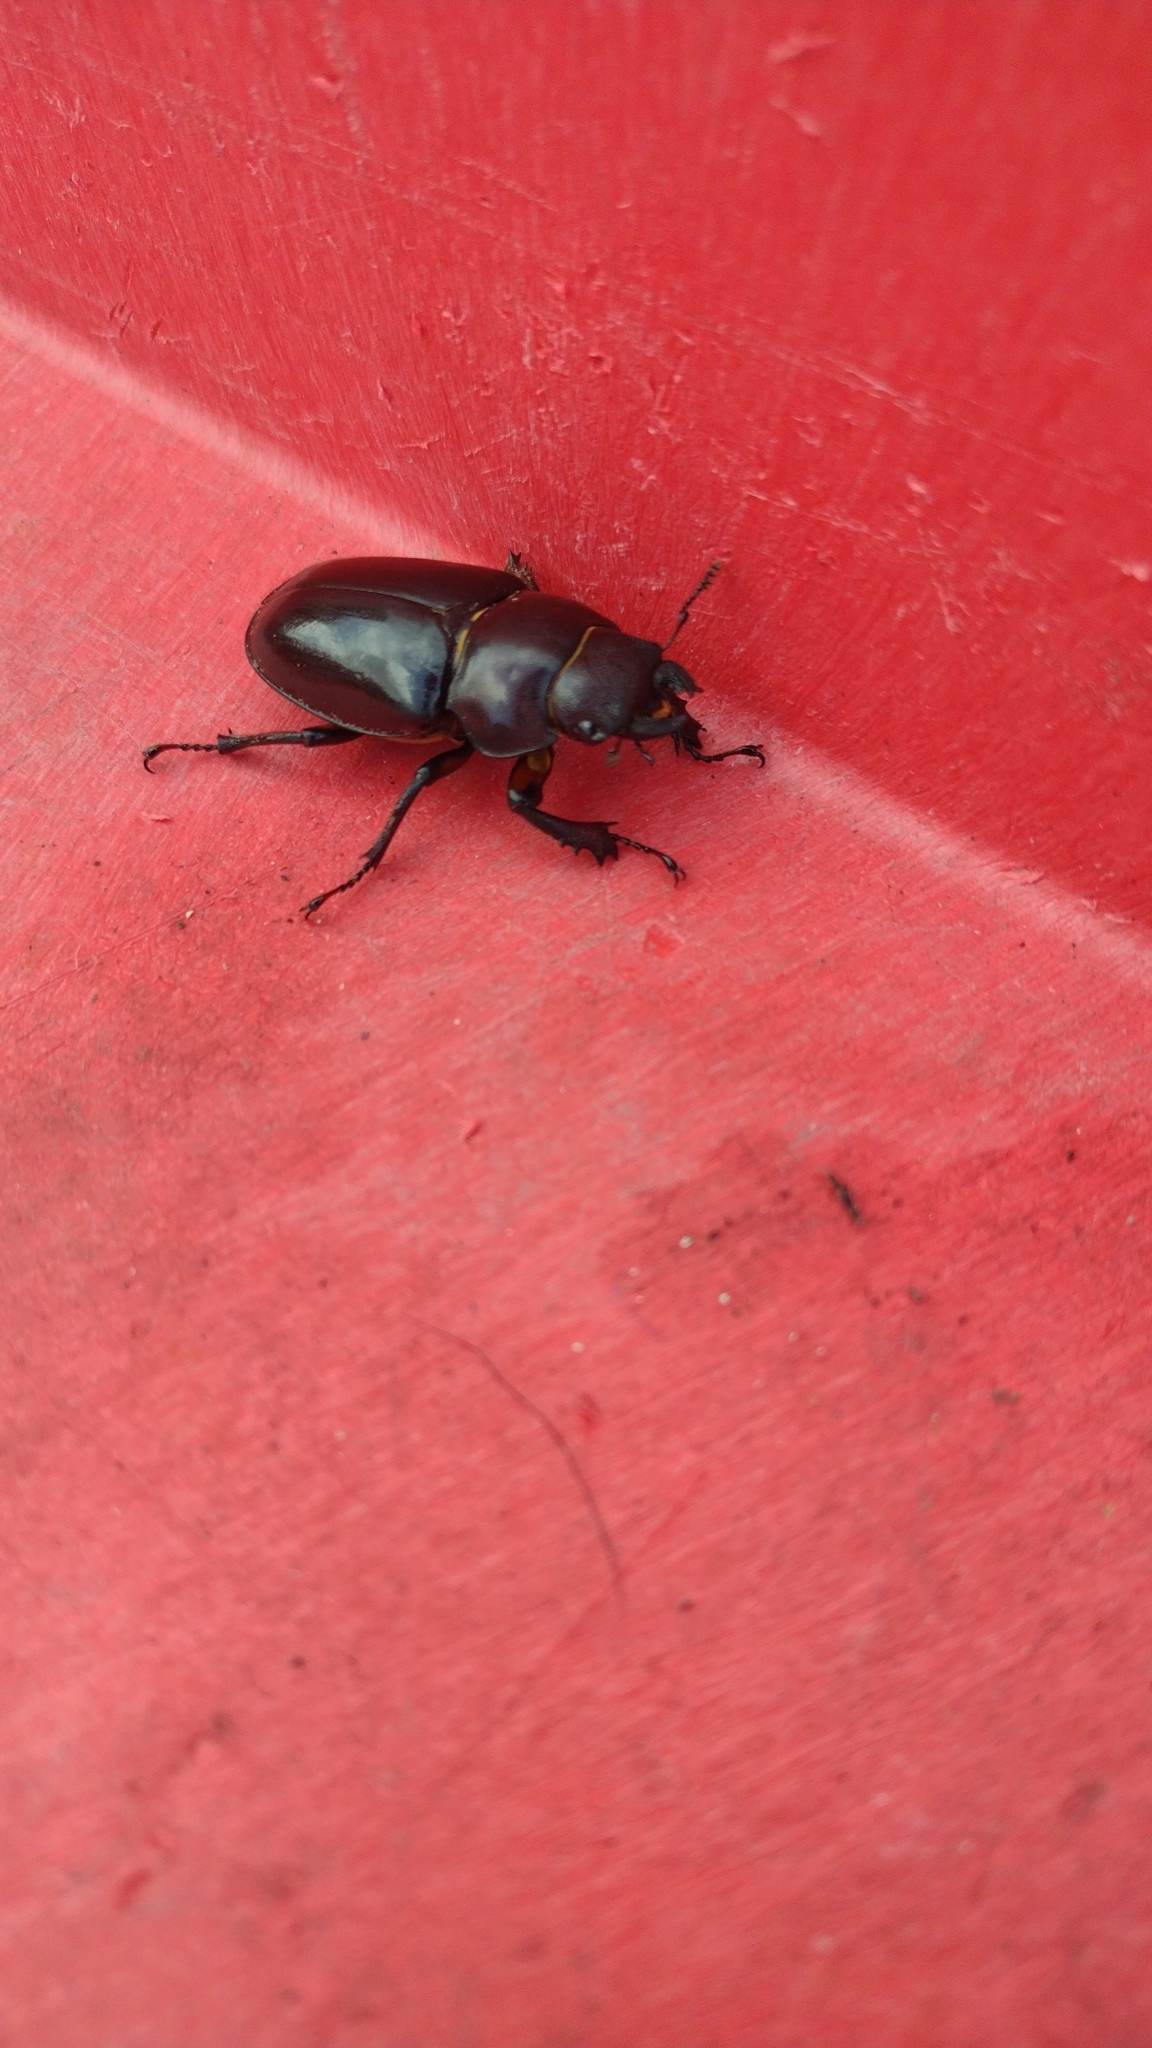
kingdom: Animalia
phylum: Arthropoda
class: Insecta
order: Coleoptera
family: Lucanidae
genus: Lucanus
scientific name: Lucanus capreolus
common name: Stag beetle
